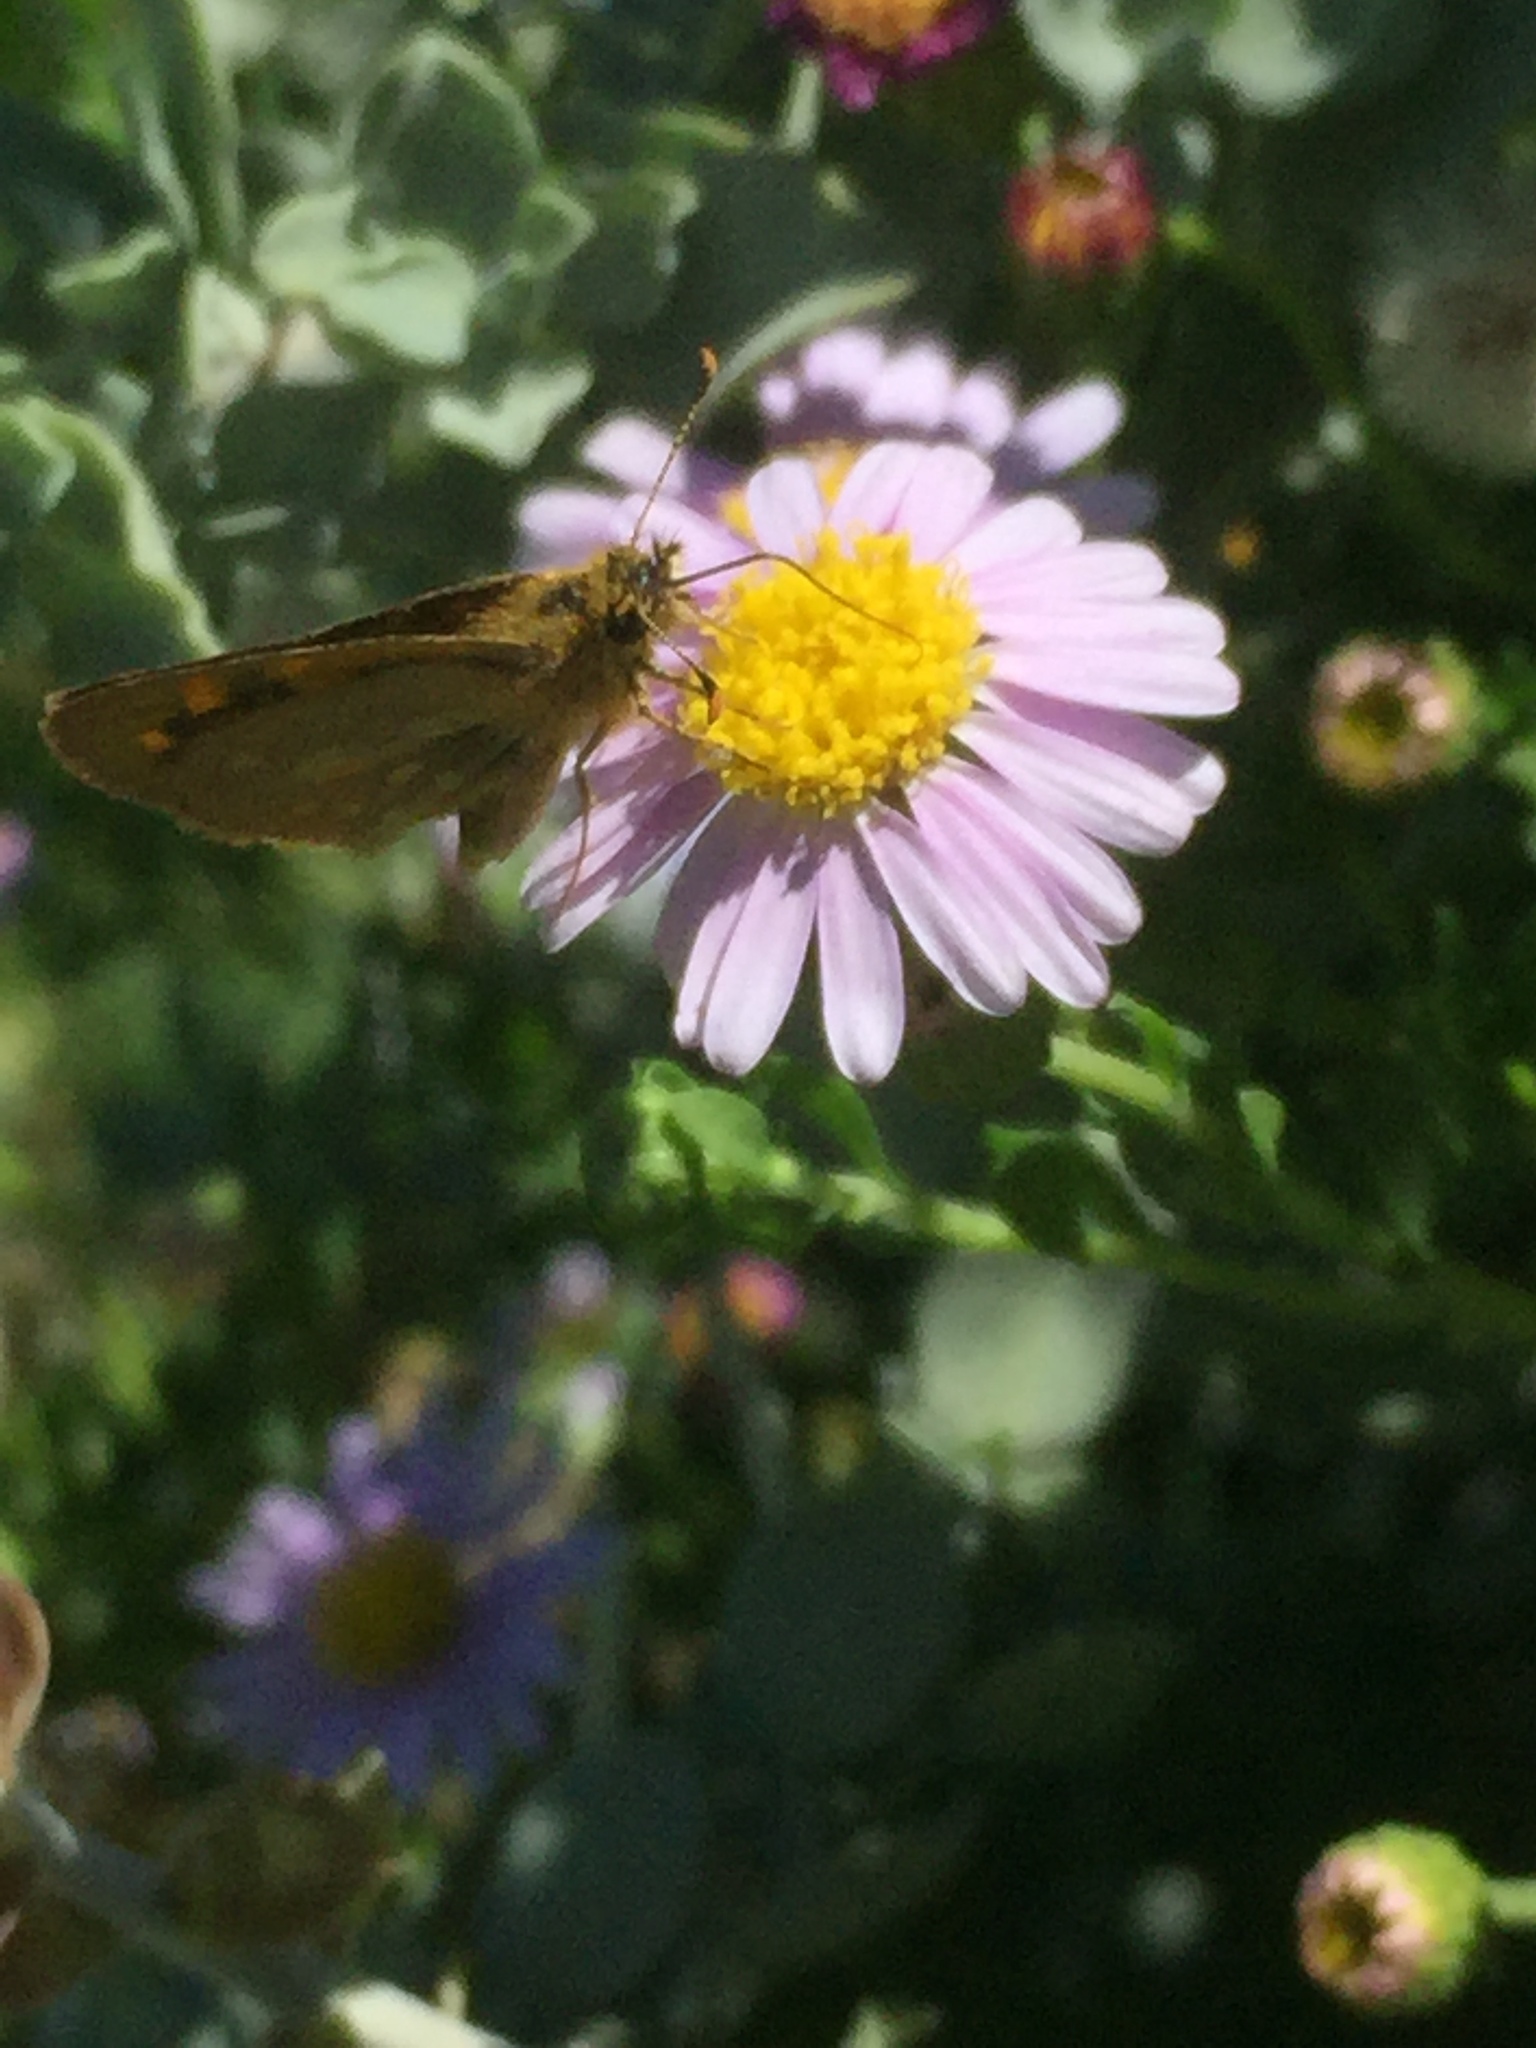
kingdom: Animalia
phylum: Arthropoda
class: Insecta
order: Lepidoptera
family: Hesperiidae
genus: Metisella
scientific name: Metisella malgacha
